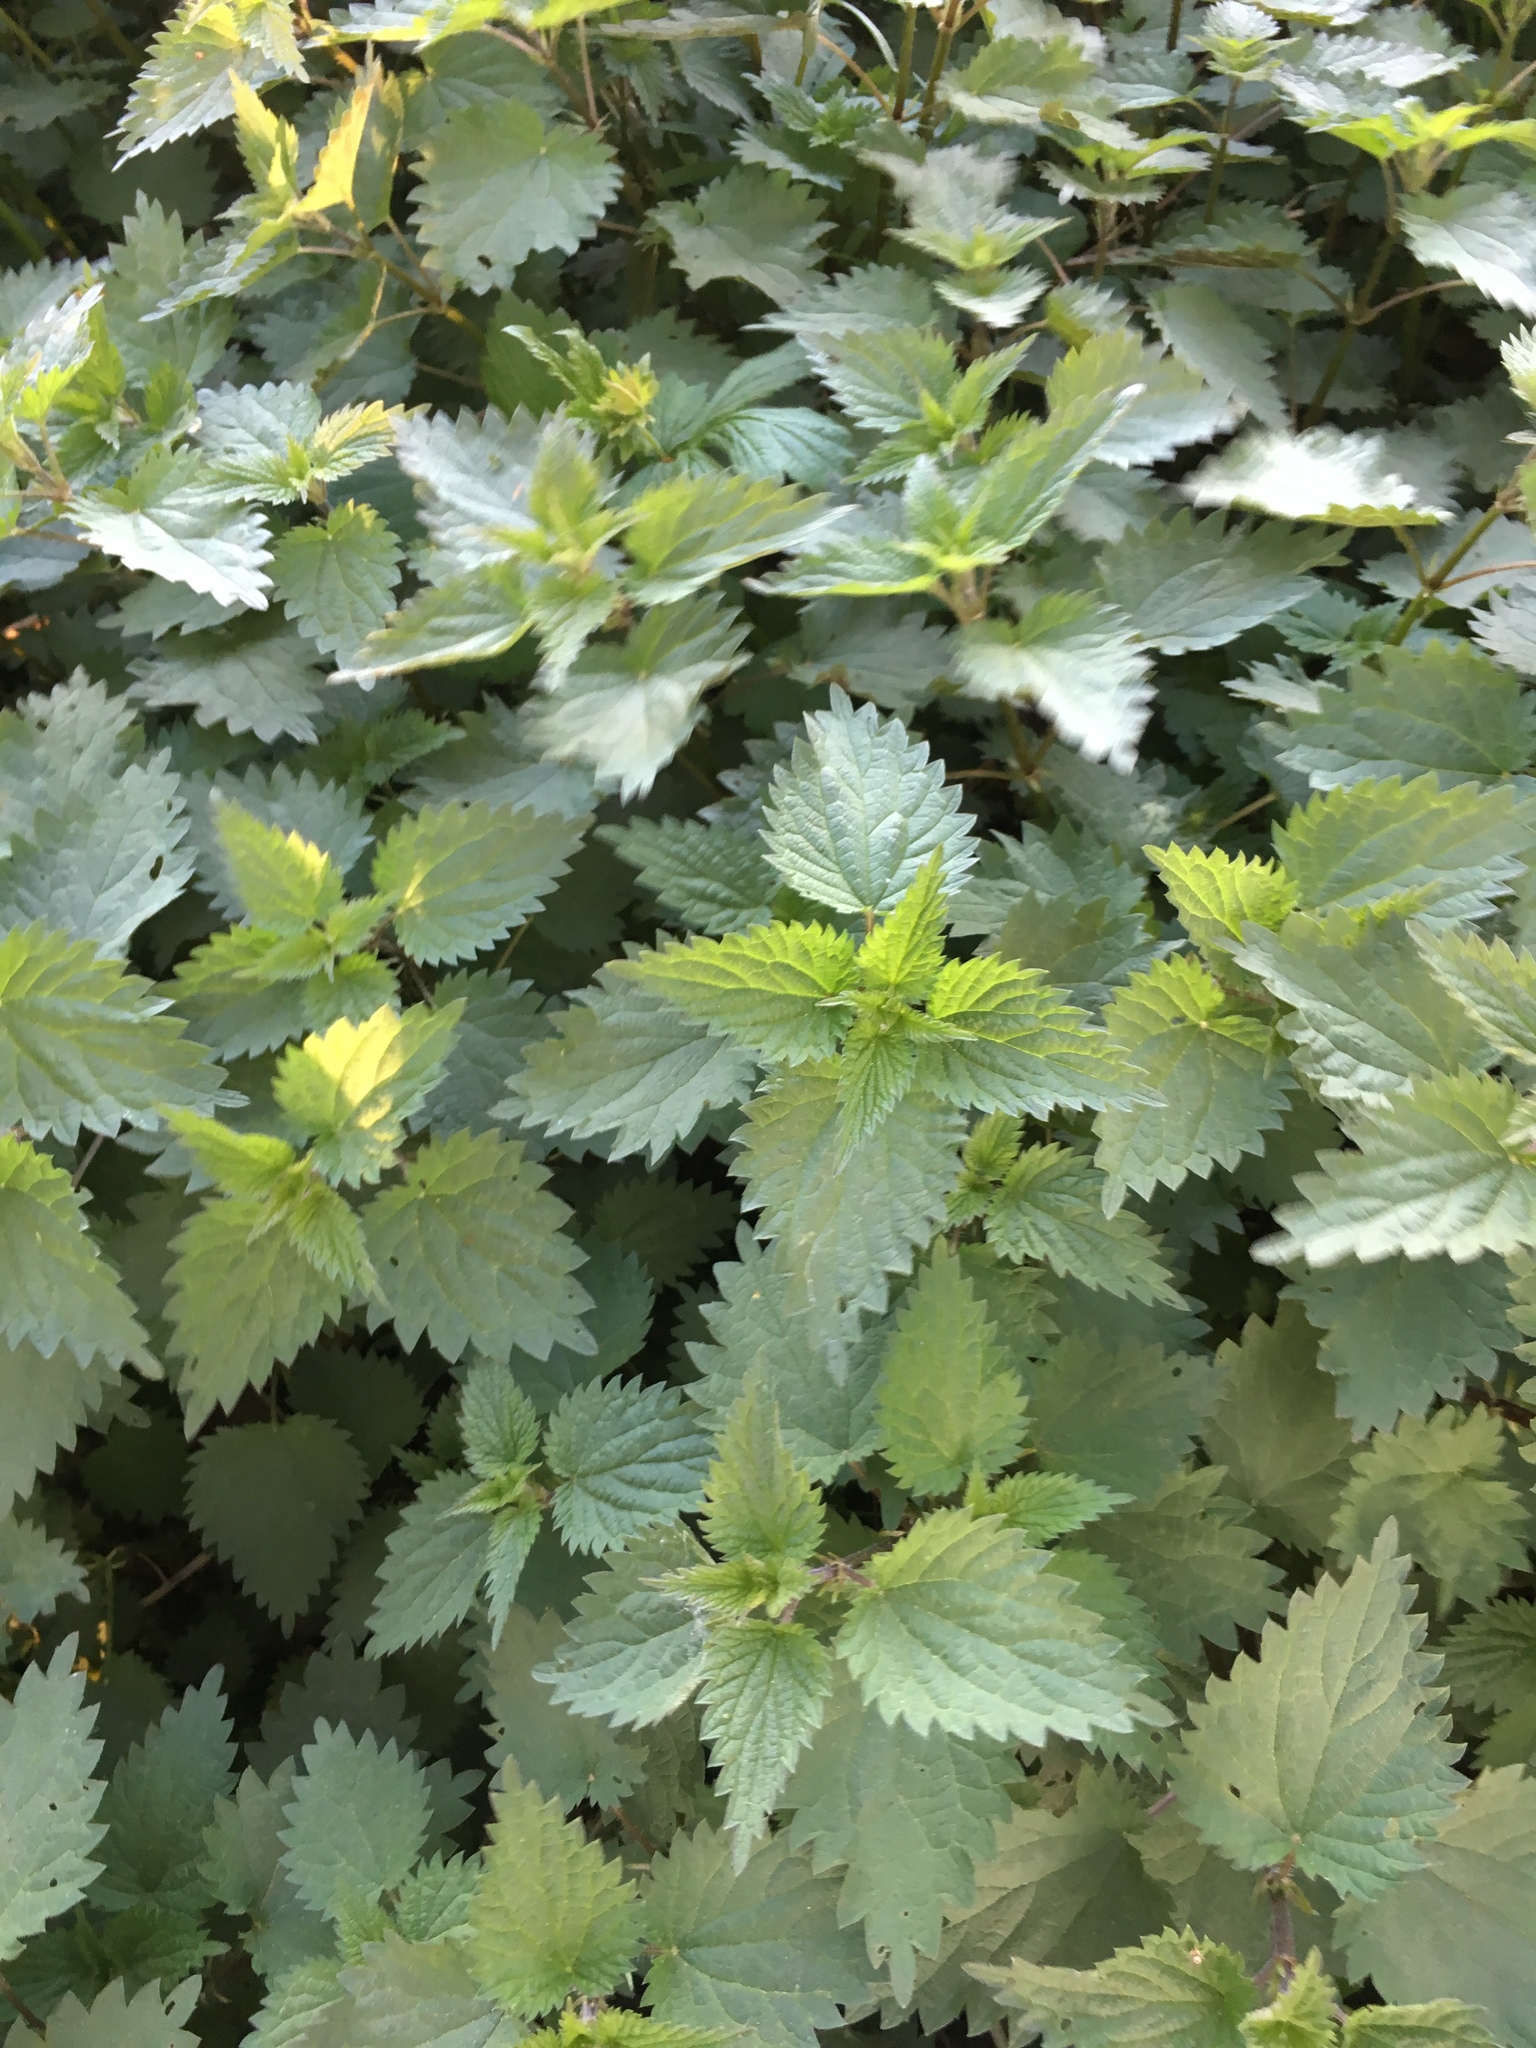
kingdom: Plantae
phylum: Tracheophyta
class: Magnoliopsida
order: Rosales
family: Urticaceae
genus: Urtica
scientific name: Urtica dioica
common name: Common nettle
